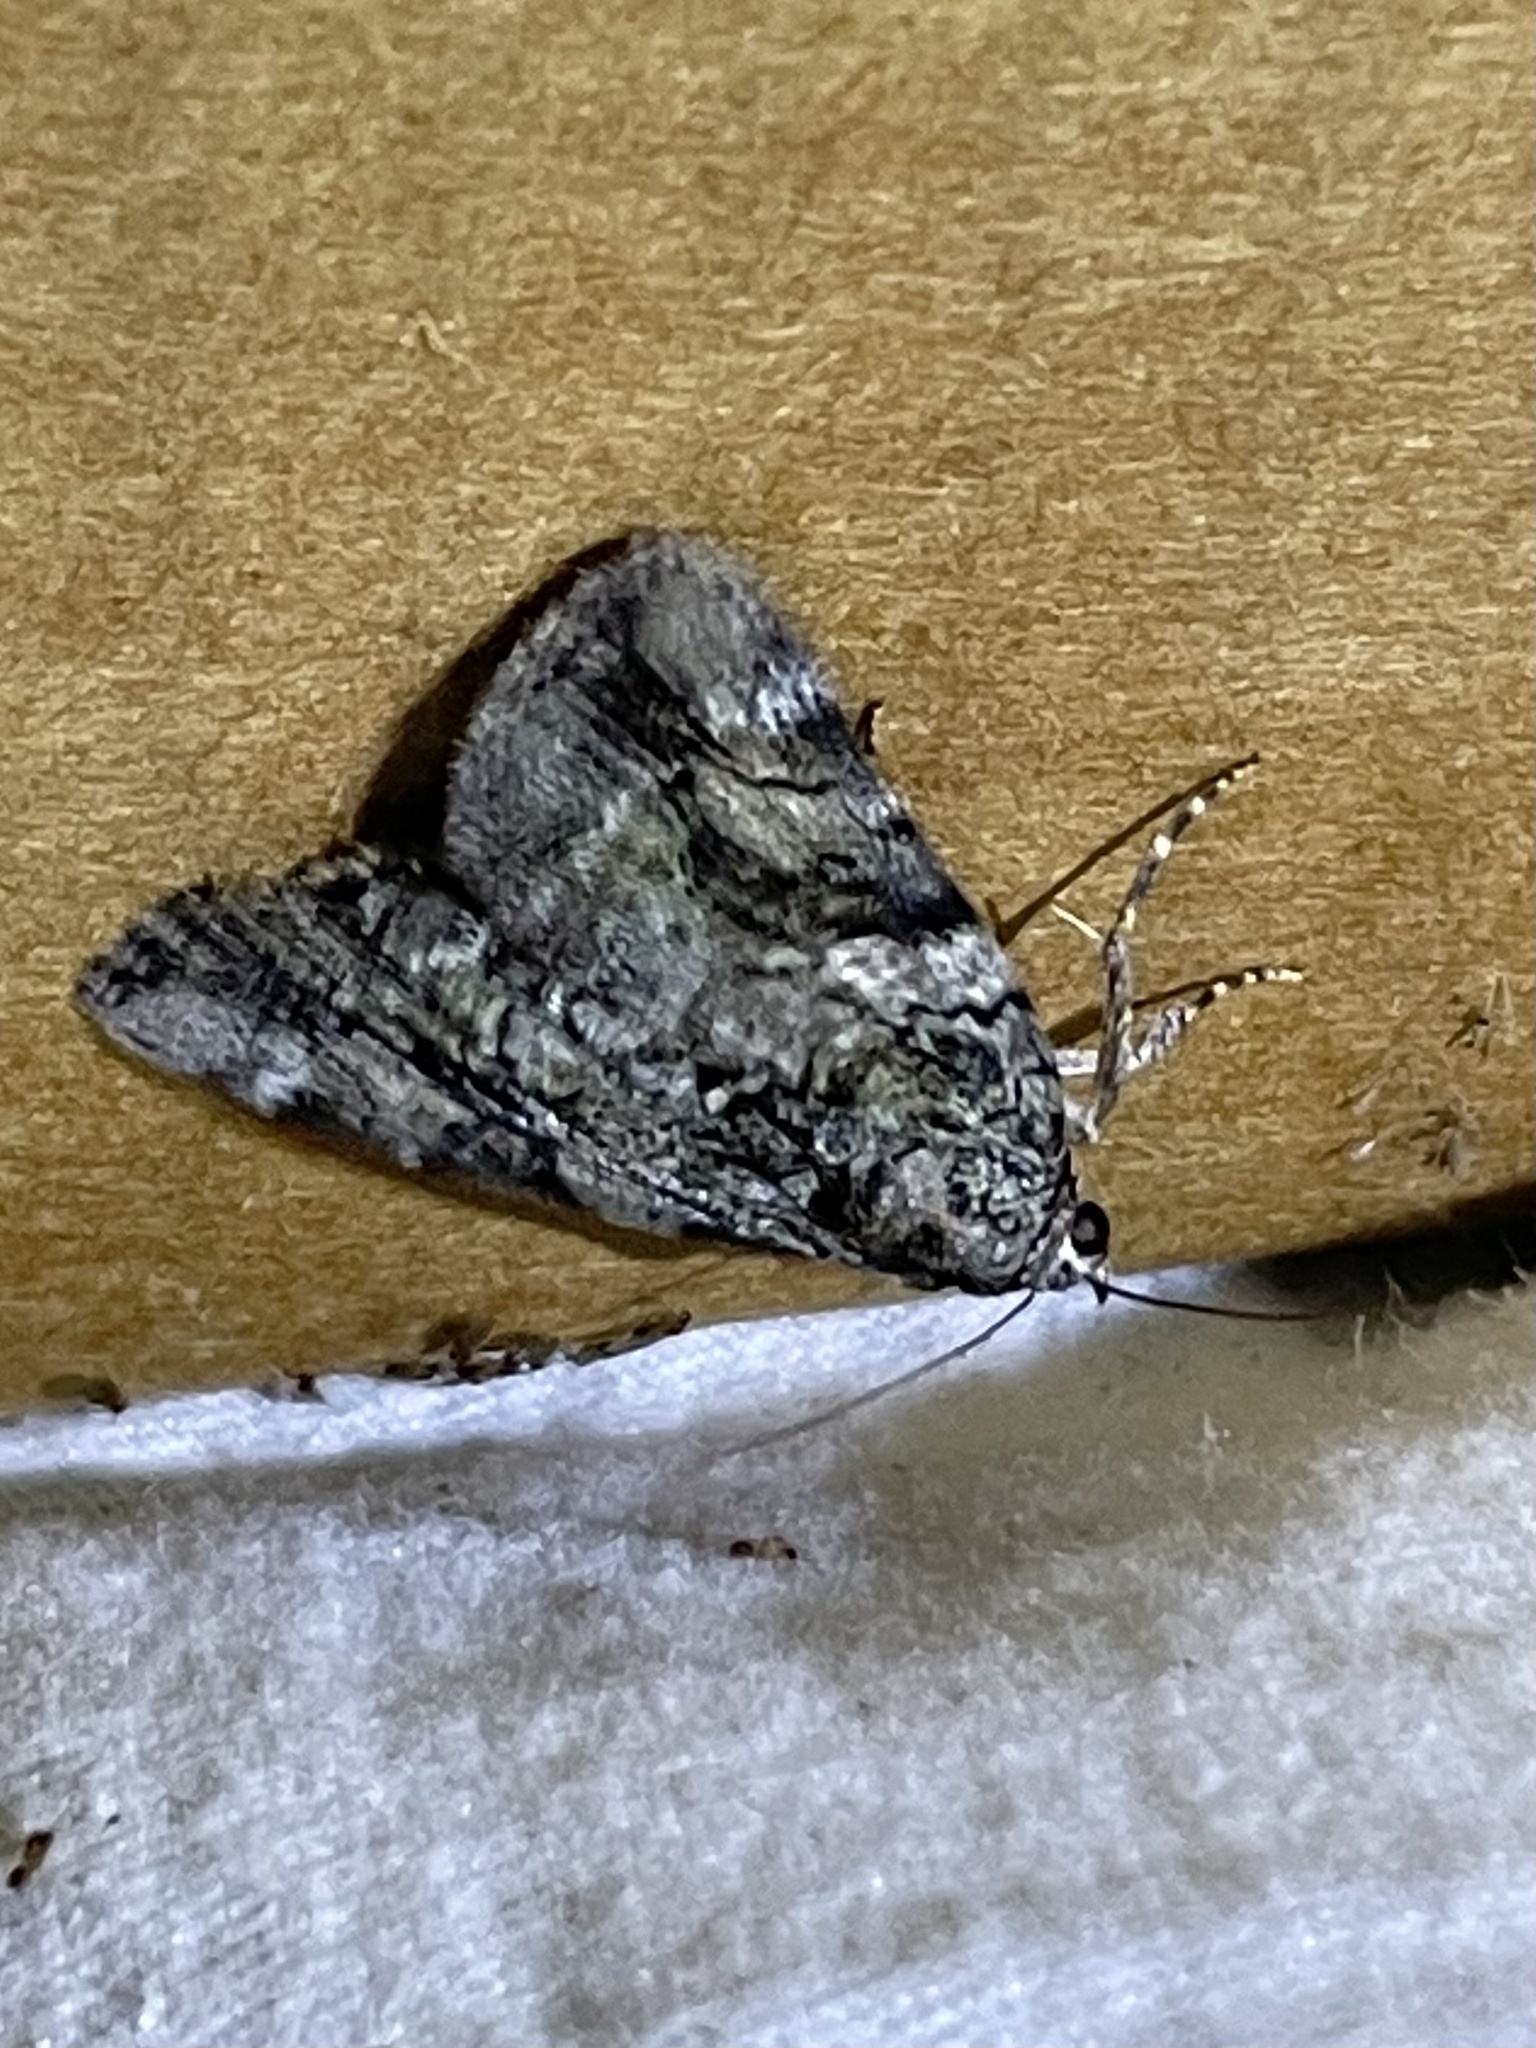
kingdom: Animalia
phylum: Arthropoda
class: Insecta
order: Lepidoptera
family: Erebidae
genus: Catocala
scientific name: Catocala micronympha
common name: Little nymph underwing
